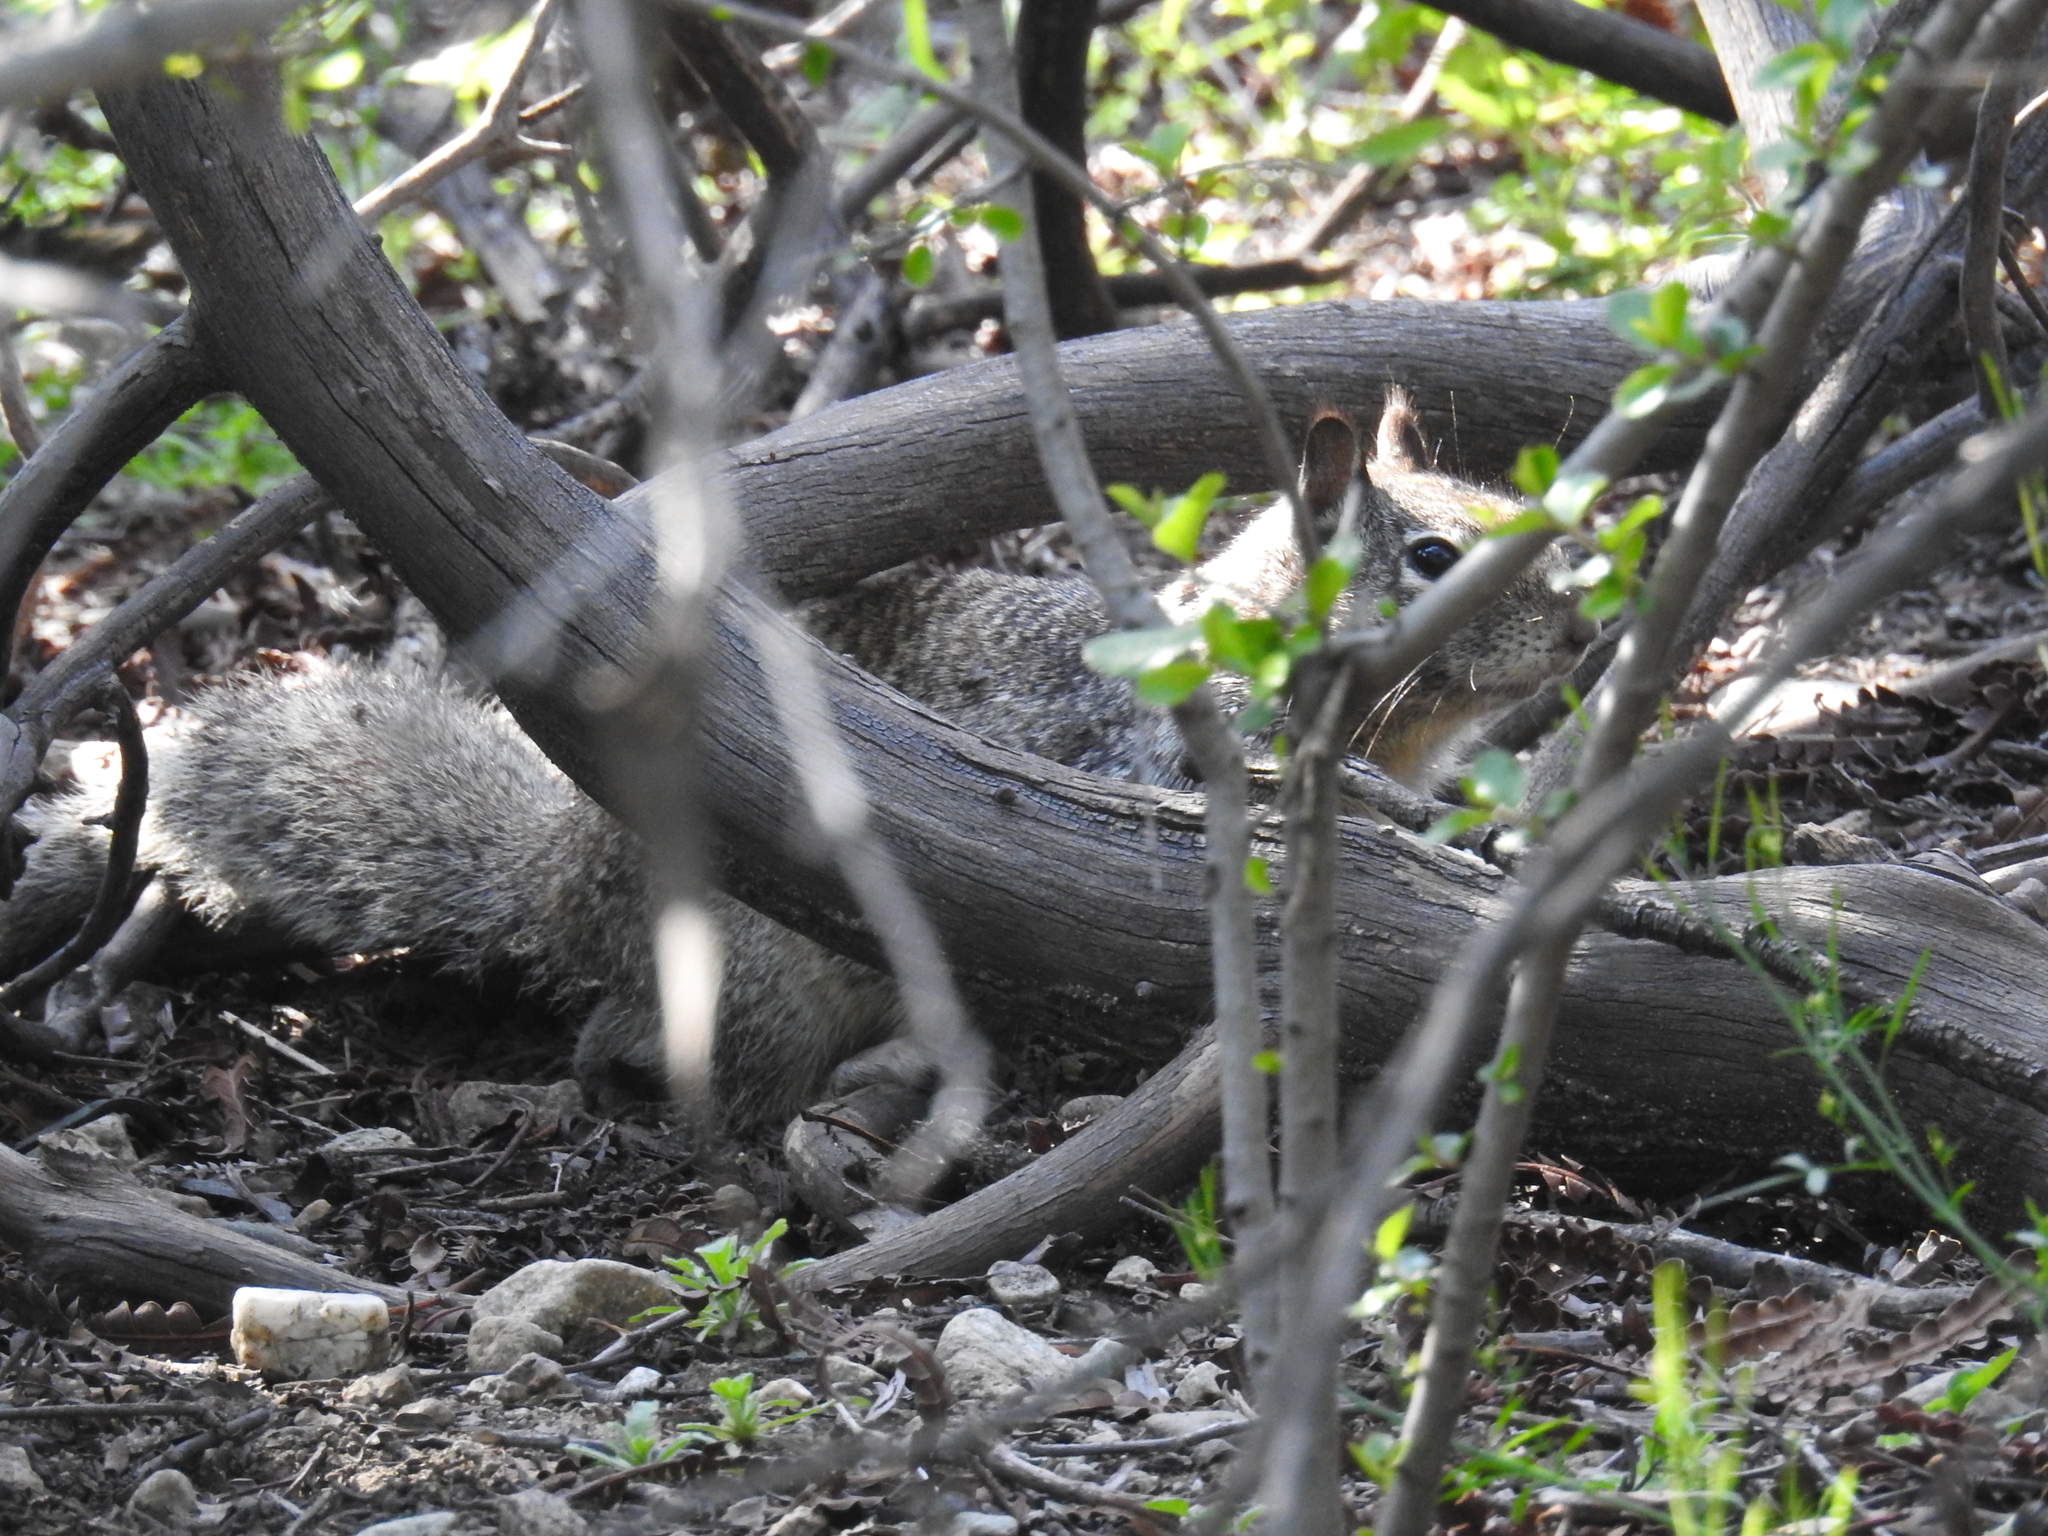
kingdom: Animalia
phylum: Chordata
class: Mammalia
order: Rodentia
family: Sciuridae
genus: Otospermophilus
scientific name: Otospermophilus beecheyi
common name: California ground squirrel
